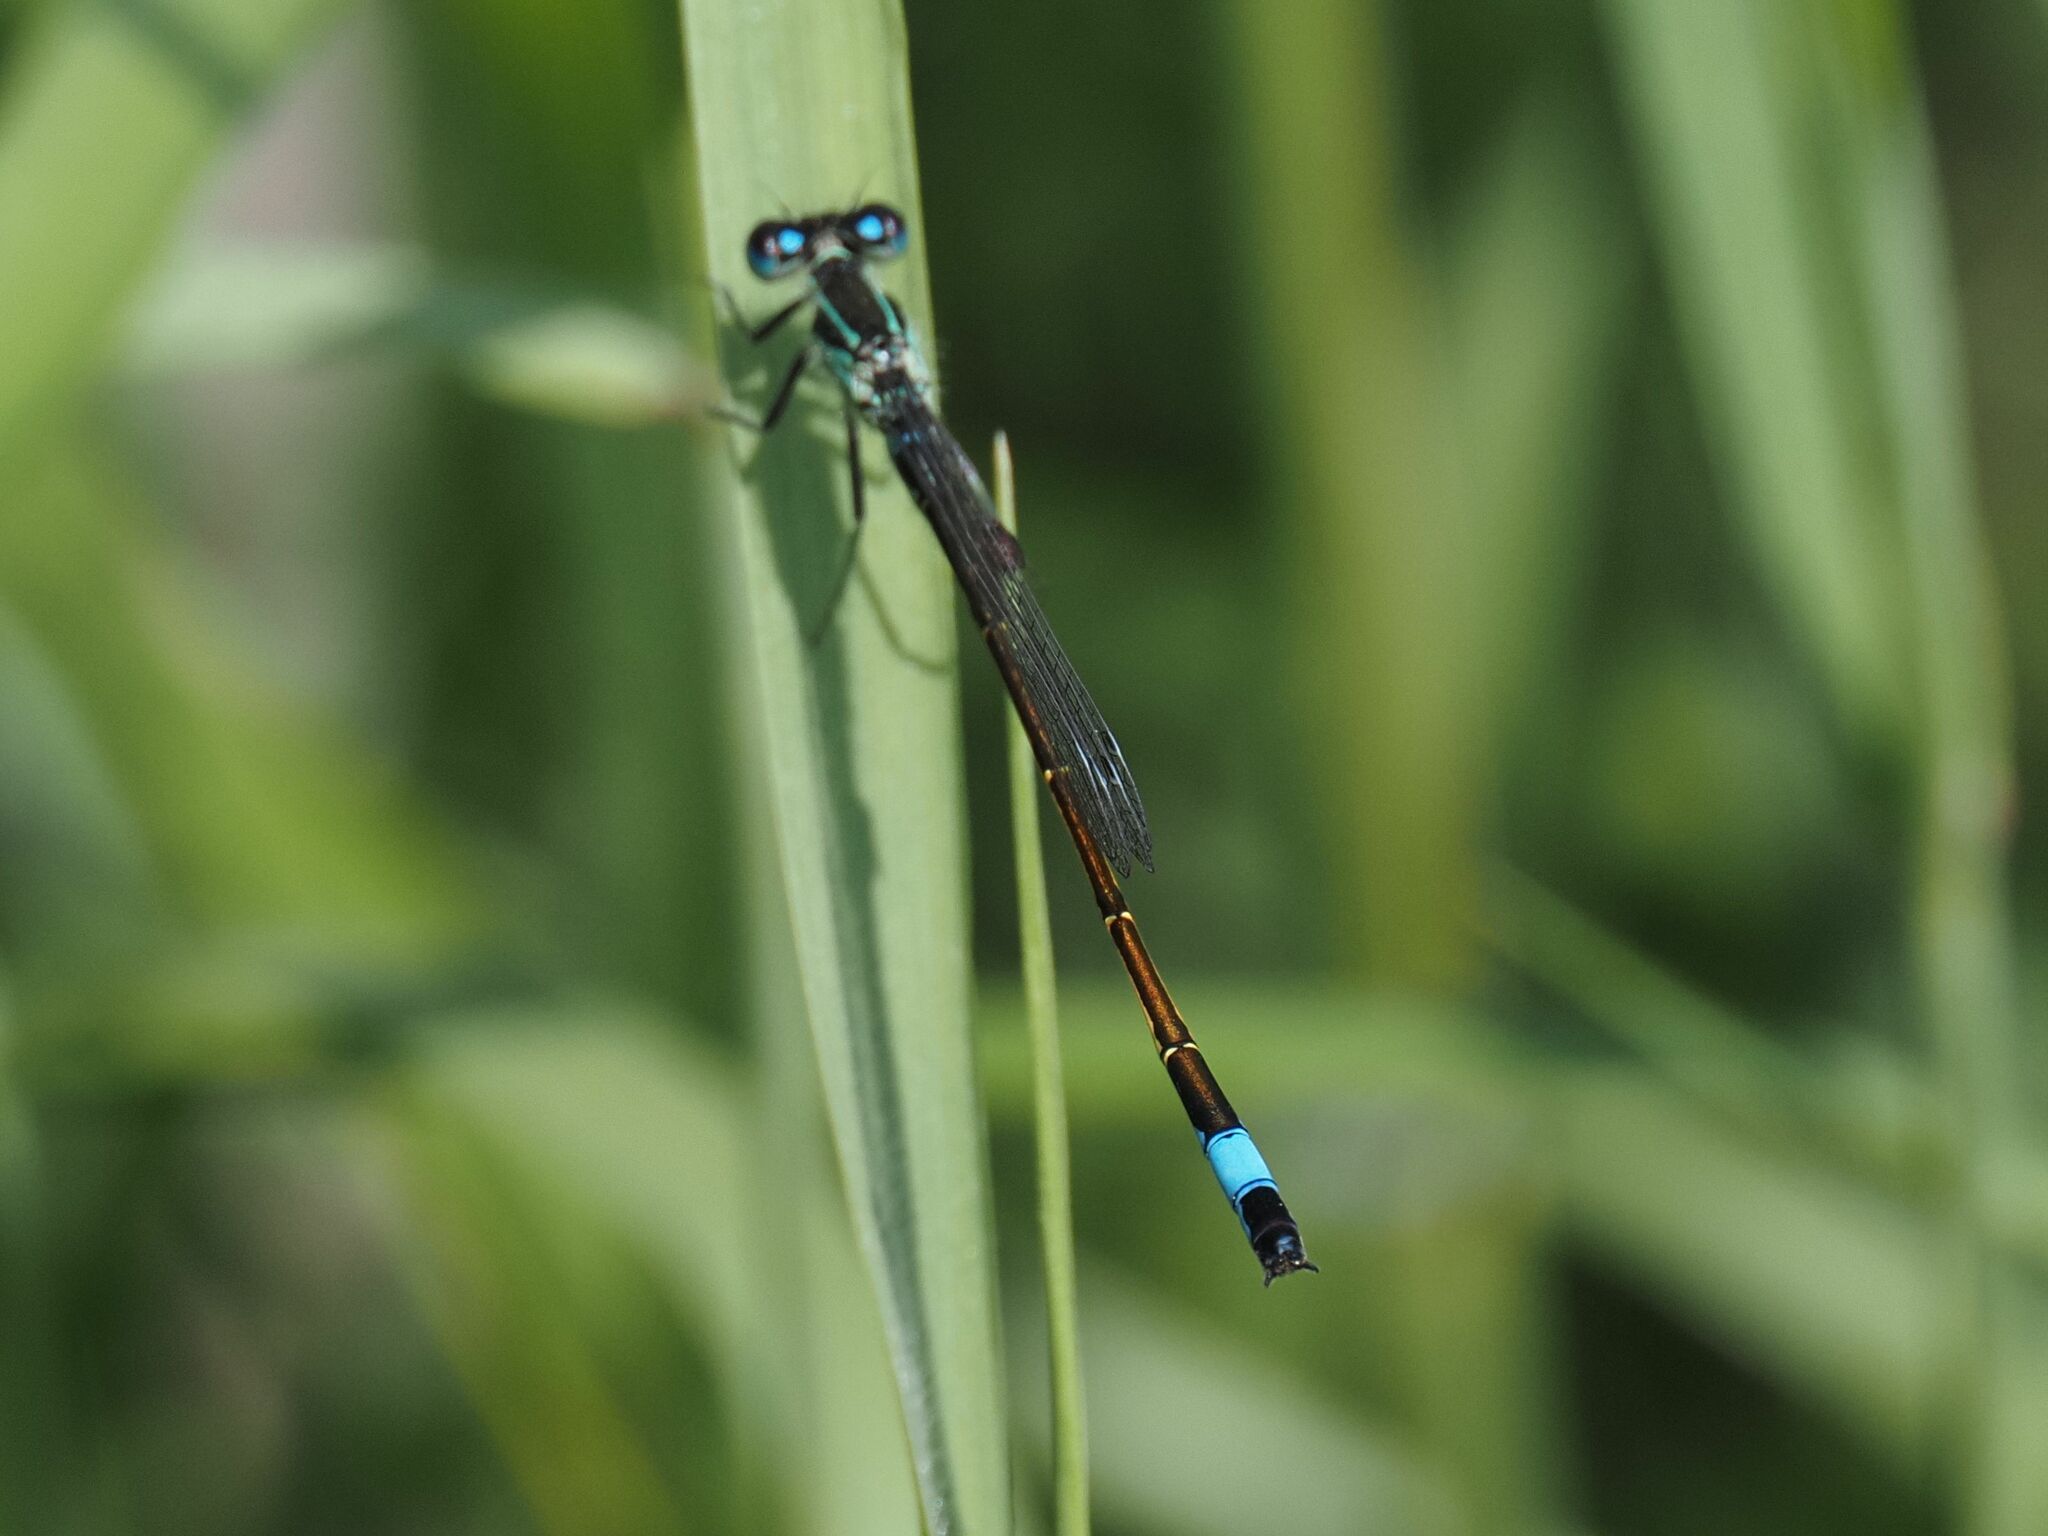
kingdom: Animalia
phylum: Arthropoda
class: Insecta
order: Odonata
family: Coenagrionidae
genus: Ischnura
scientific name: Ischnura elegans
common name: Blue-tailed damselfly
